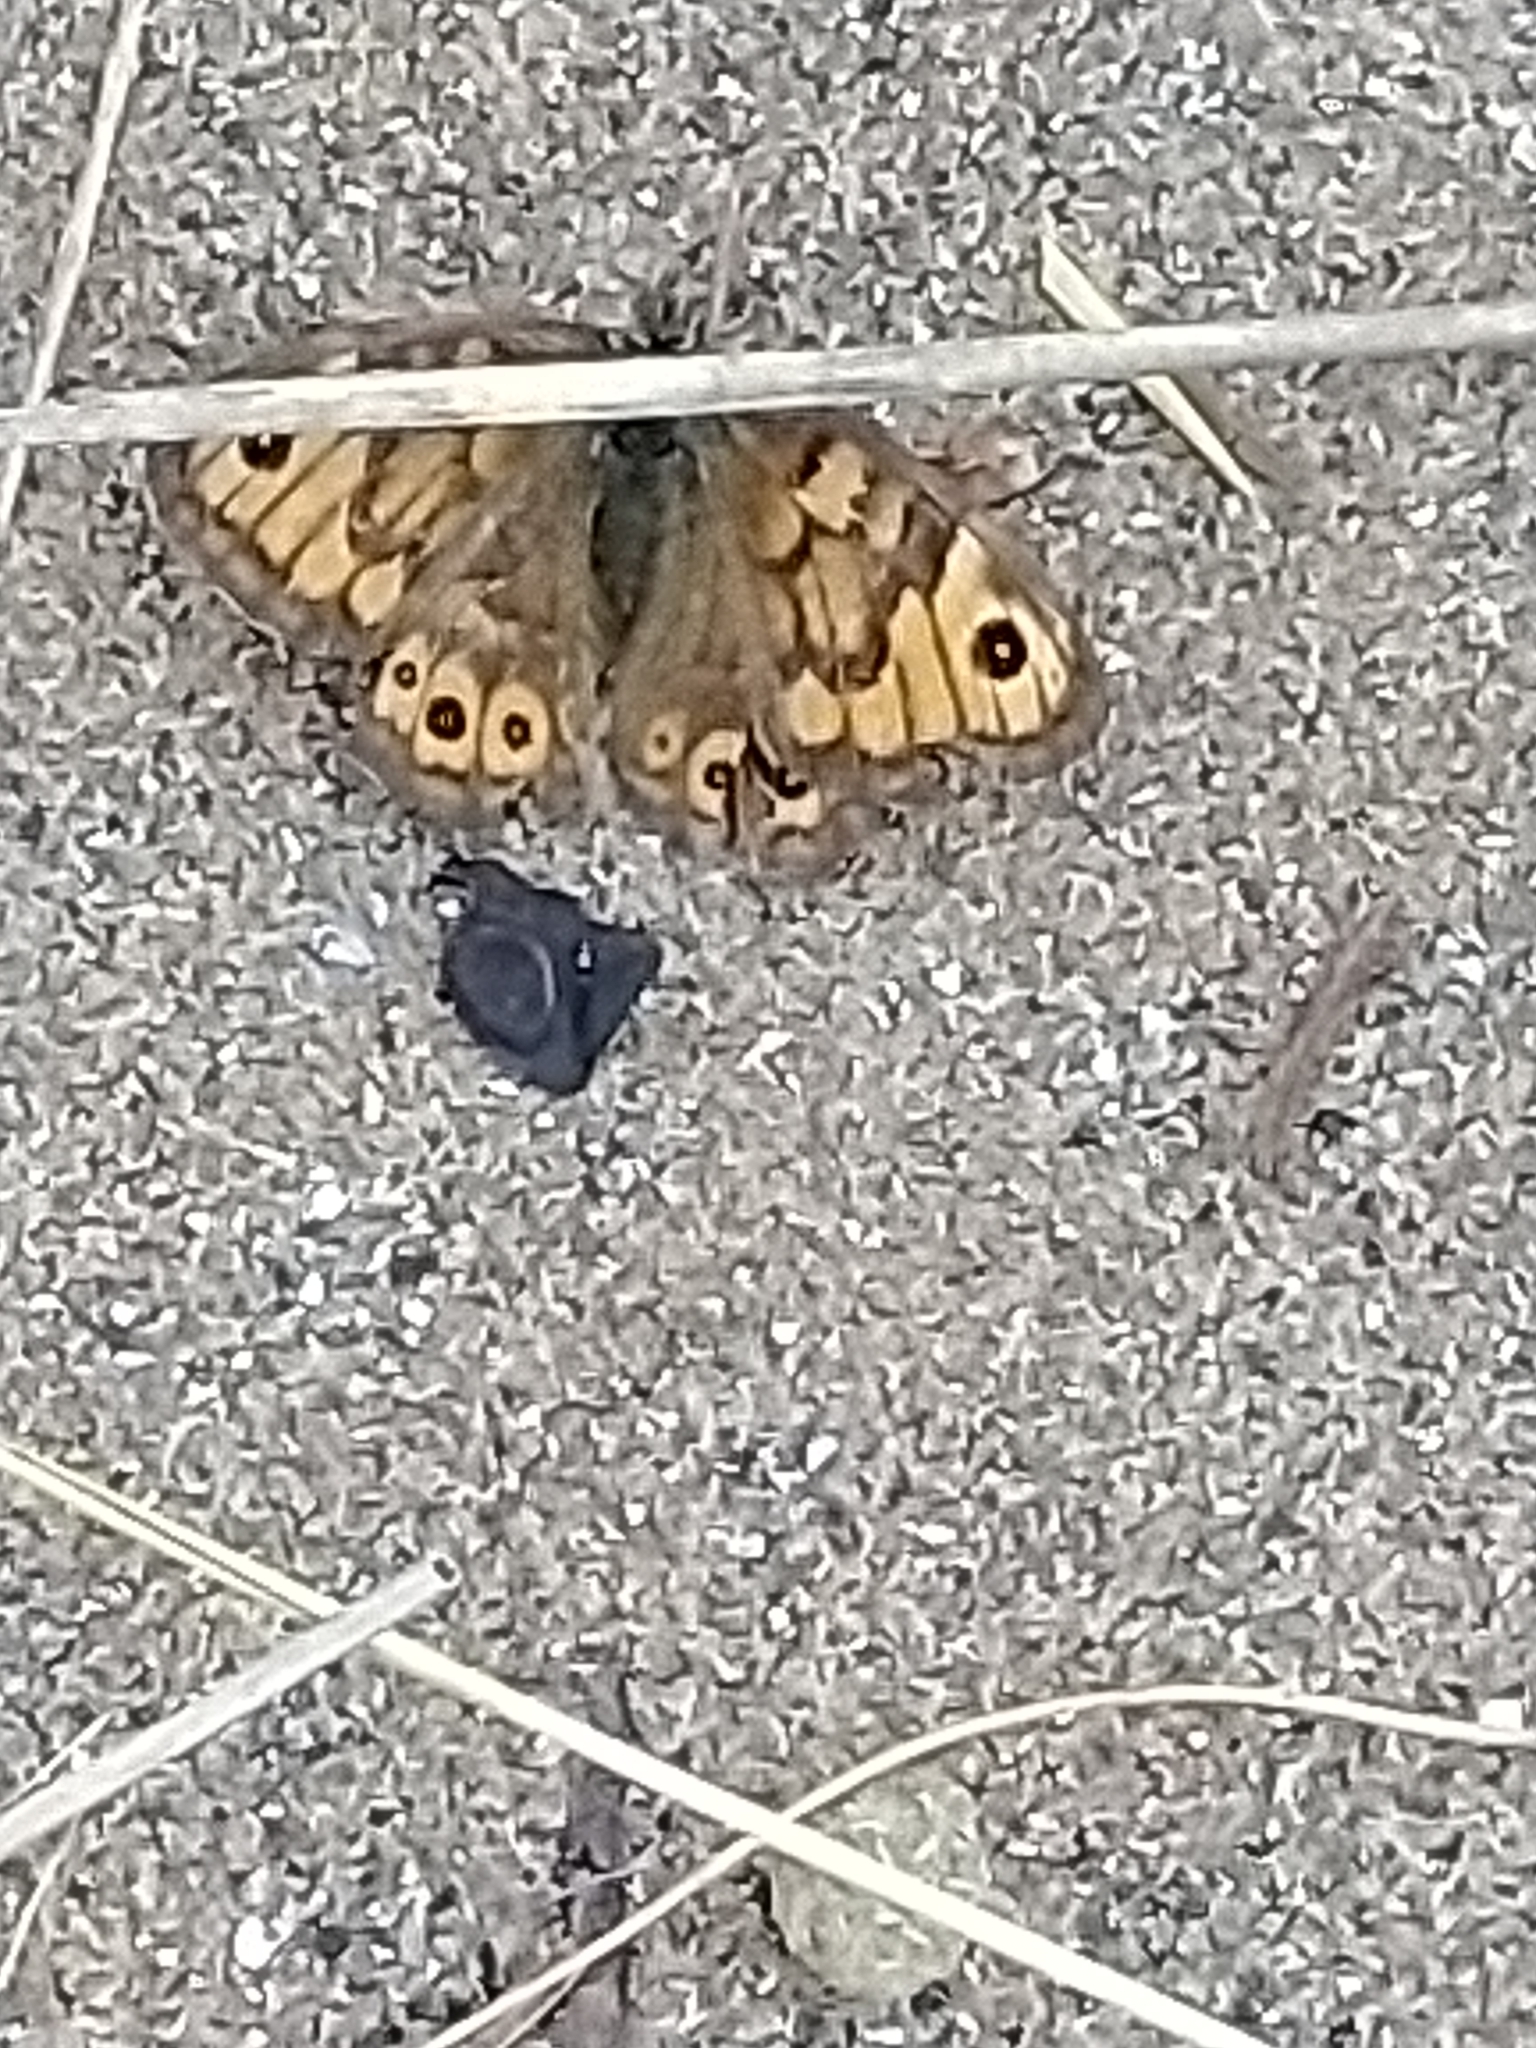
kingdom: Animalia
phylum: Arthropoda
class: Insecta
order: Lepidoptera
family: Nymphalidae
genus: Pararge
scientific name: Pararge Lasiommata megera
